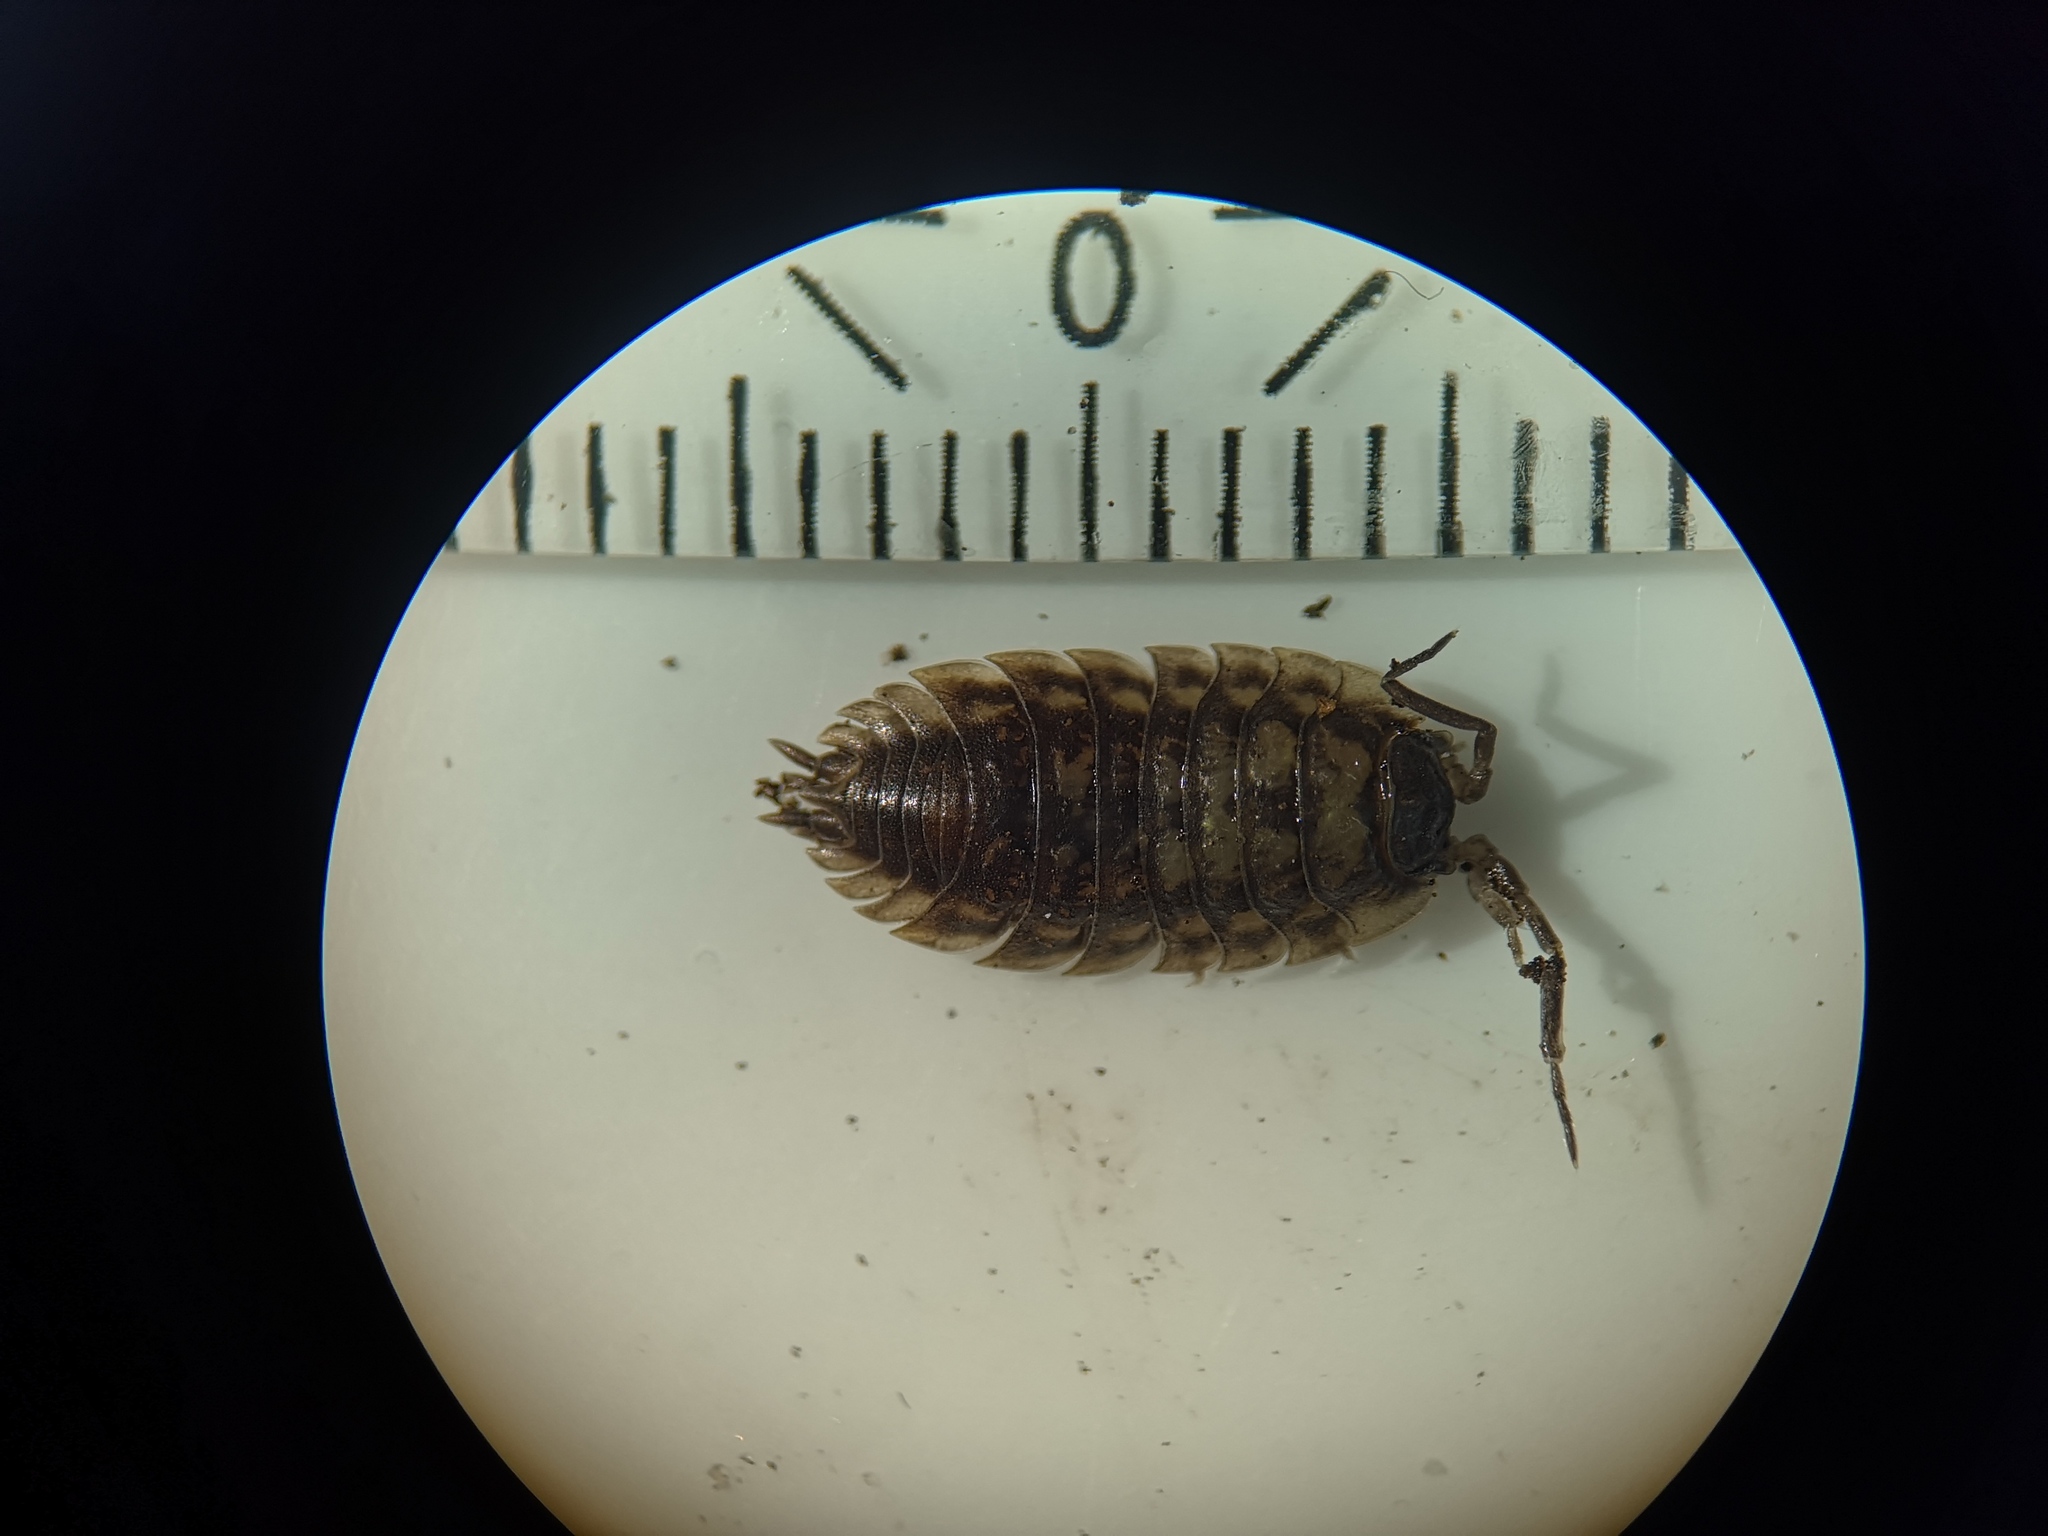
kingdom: Animalia
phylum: Arthropoda
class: Malacostraca
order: Isopoda
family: Oniscidae
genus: Oniscus
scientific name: Oniscus asellus
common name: Common shiny woodlouse
